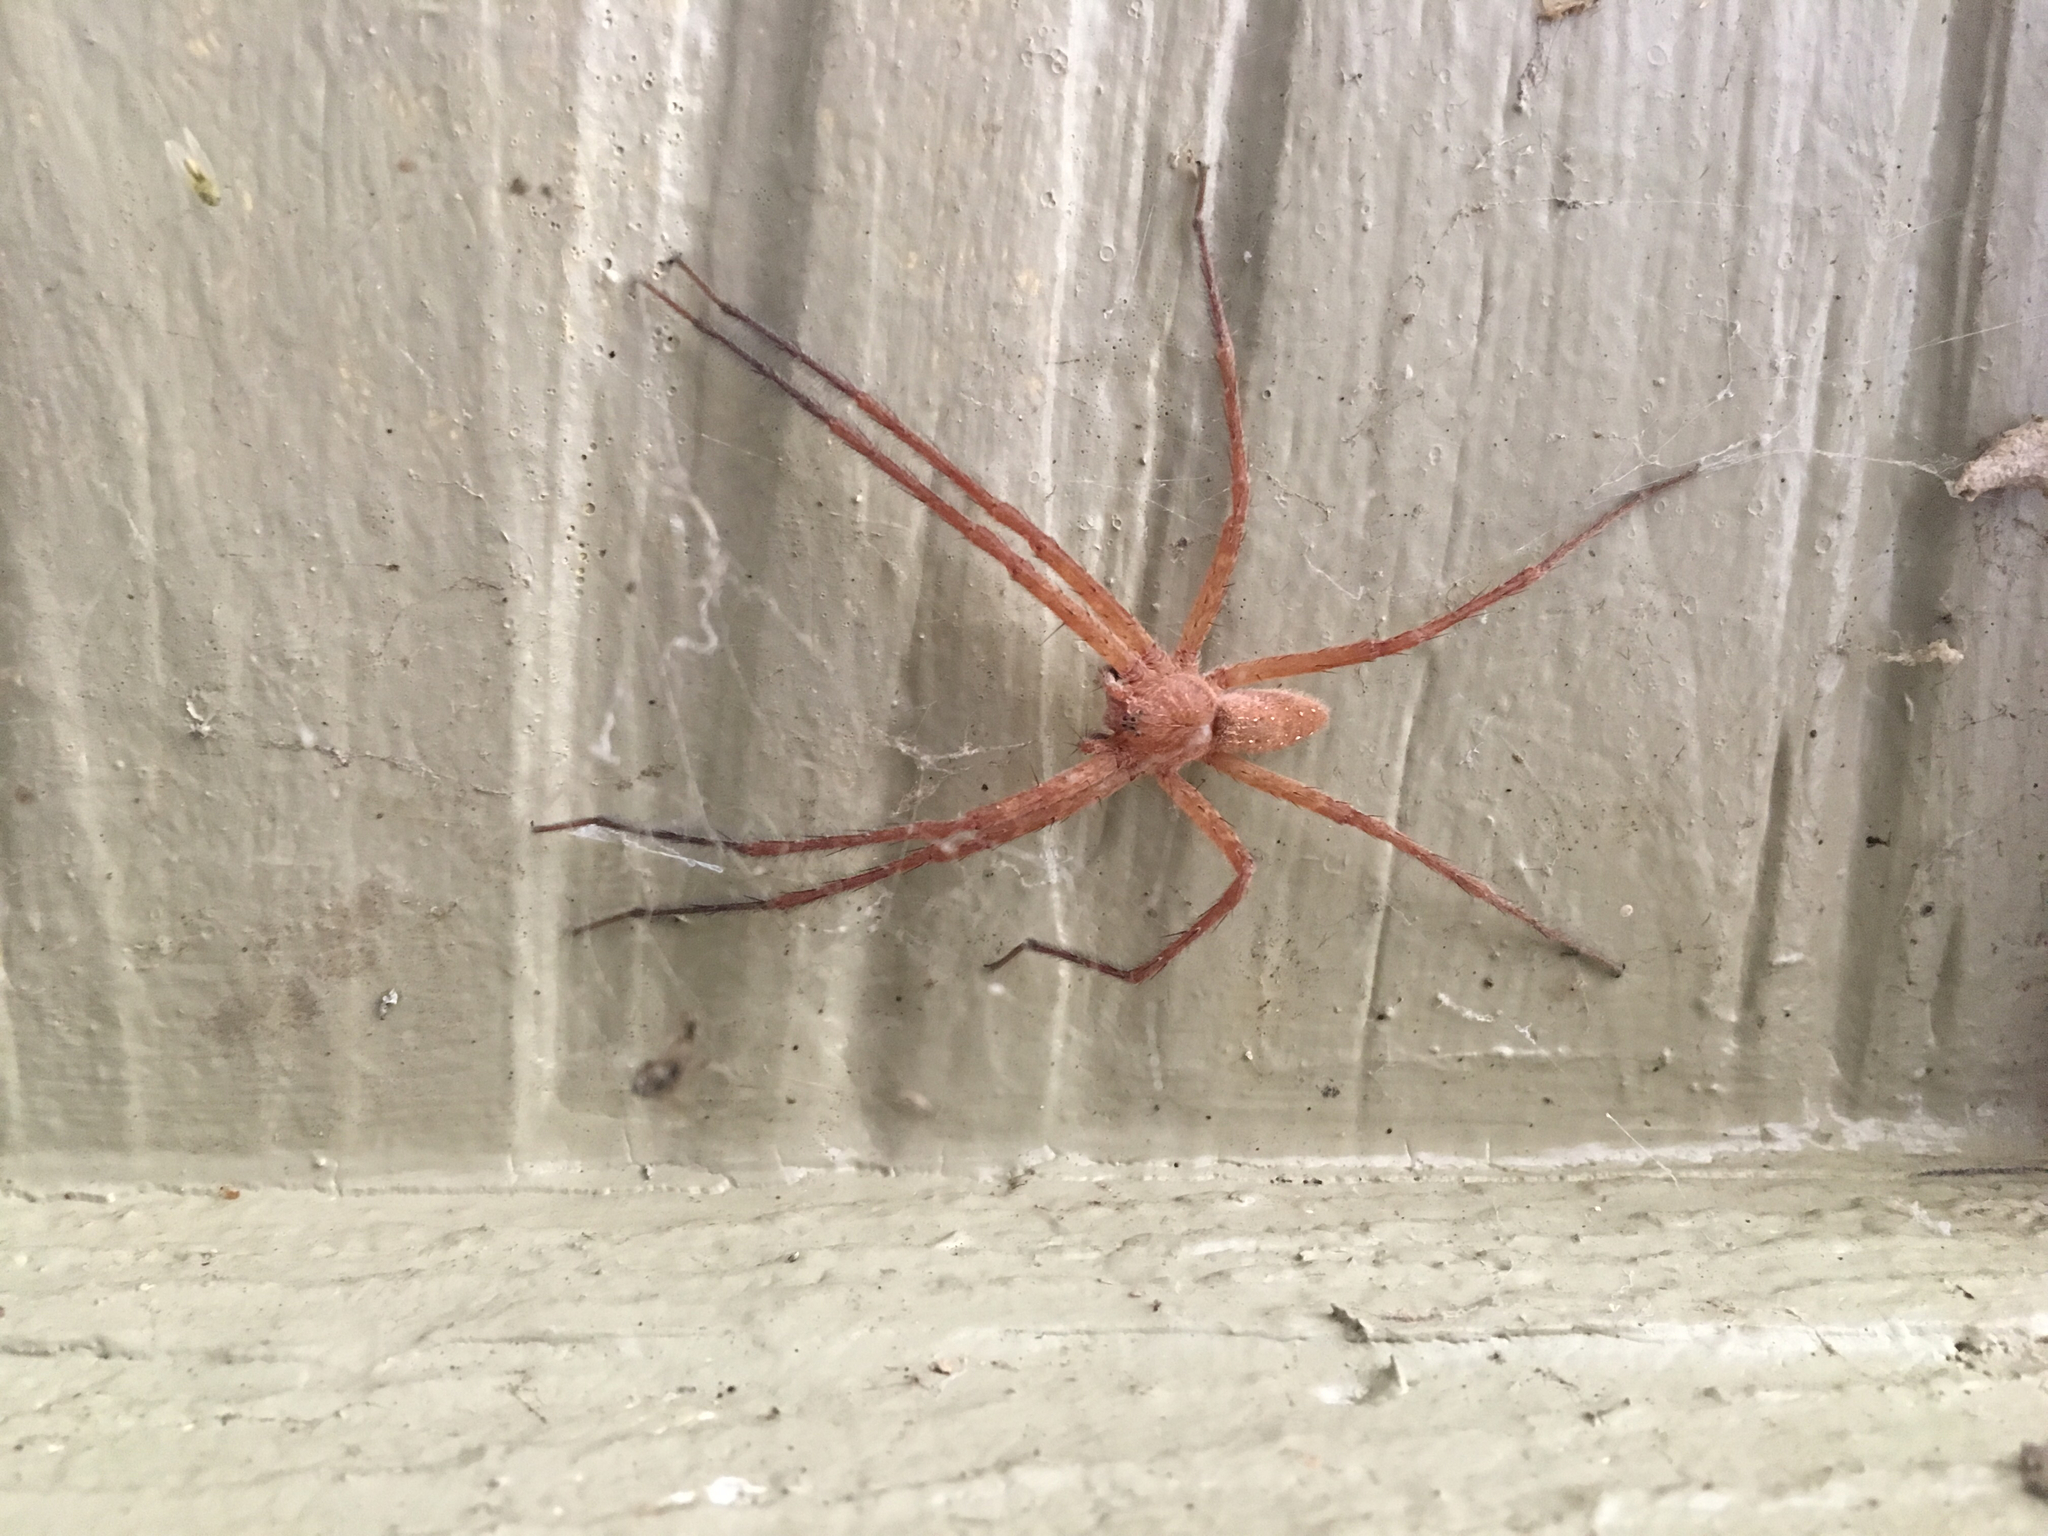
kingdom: Animalia
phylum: Arthropoda
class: Arachnida
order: Araneae
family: Pisauridae
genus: Pisaurina
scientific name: Pisaurina mira
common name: American nursery web spider
